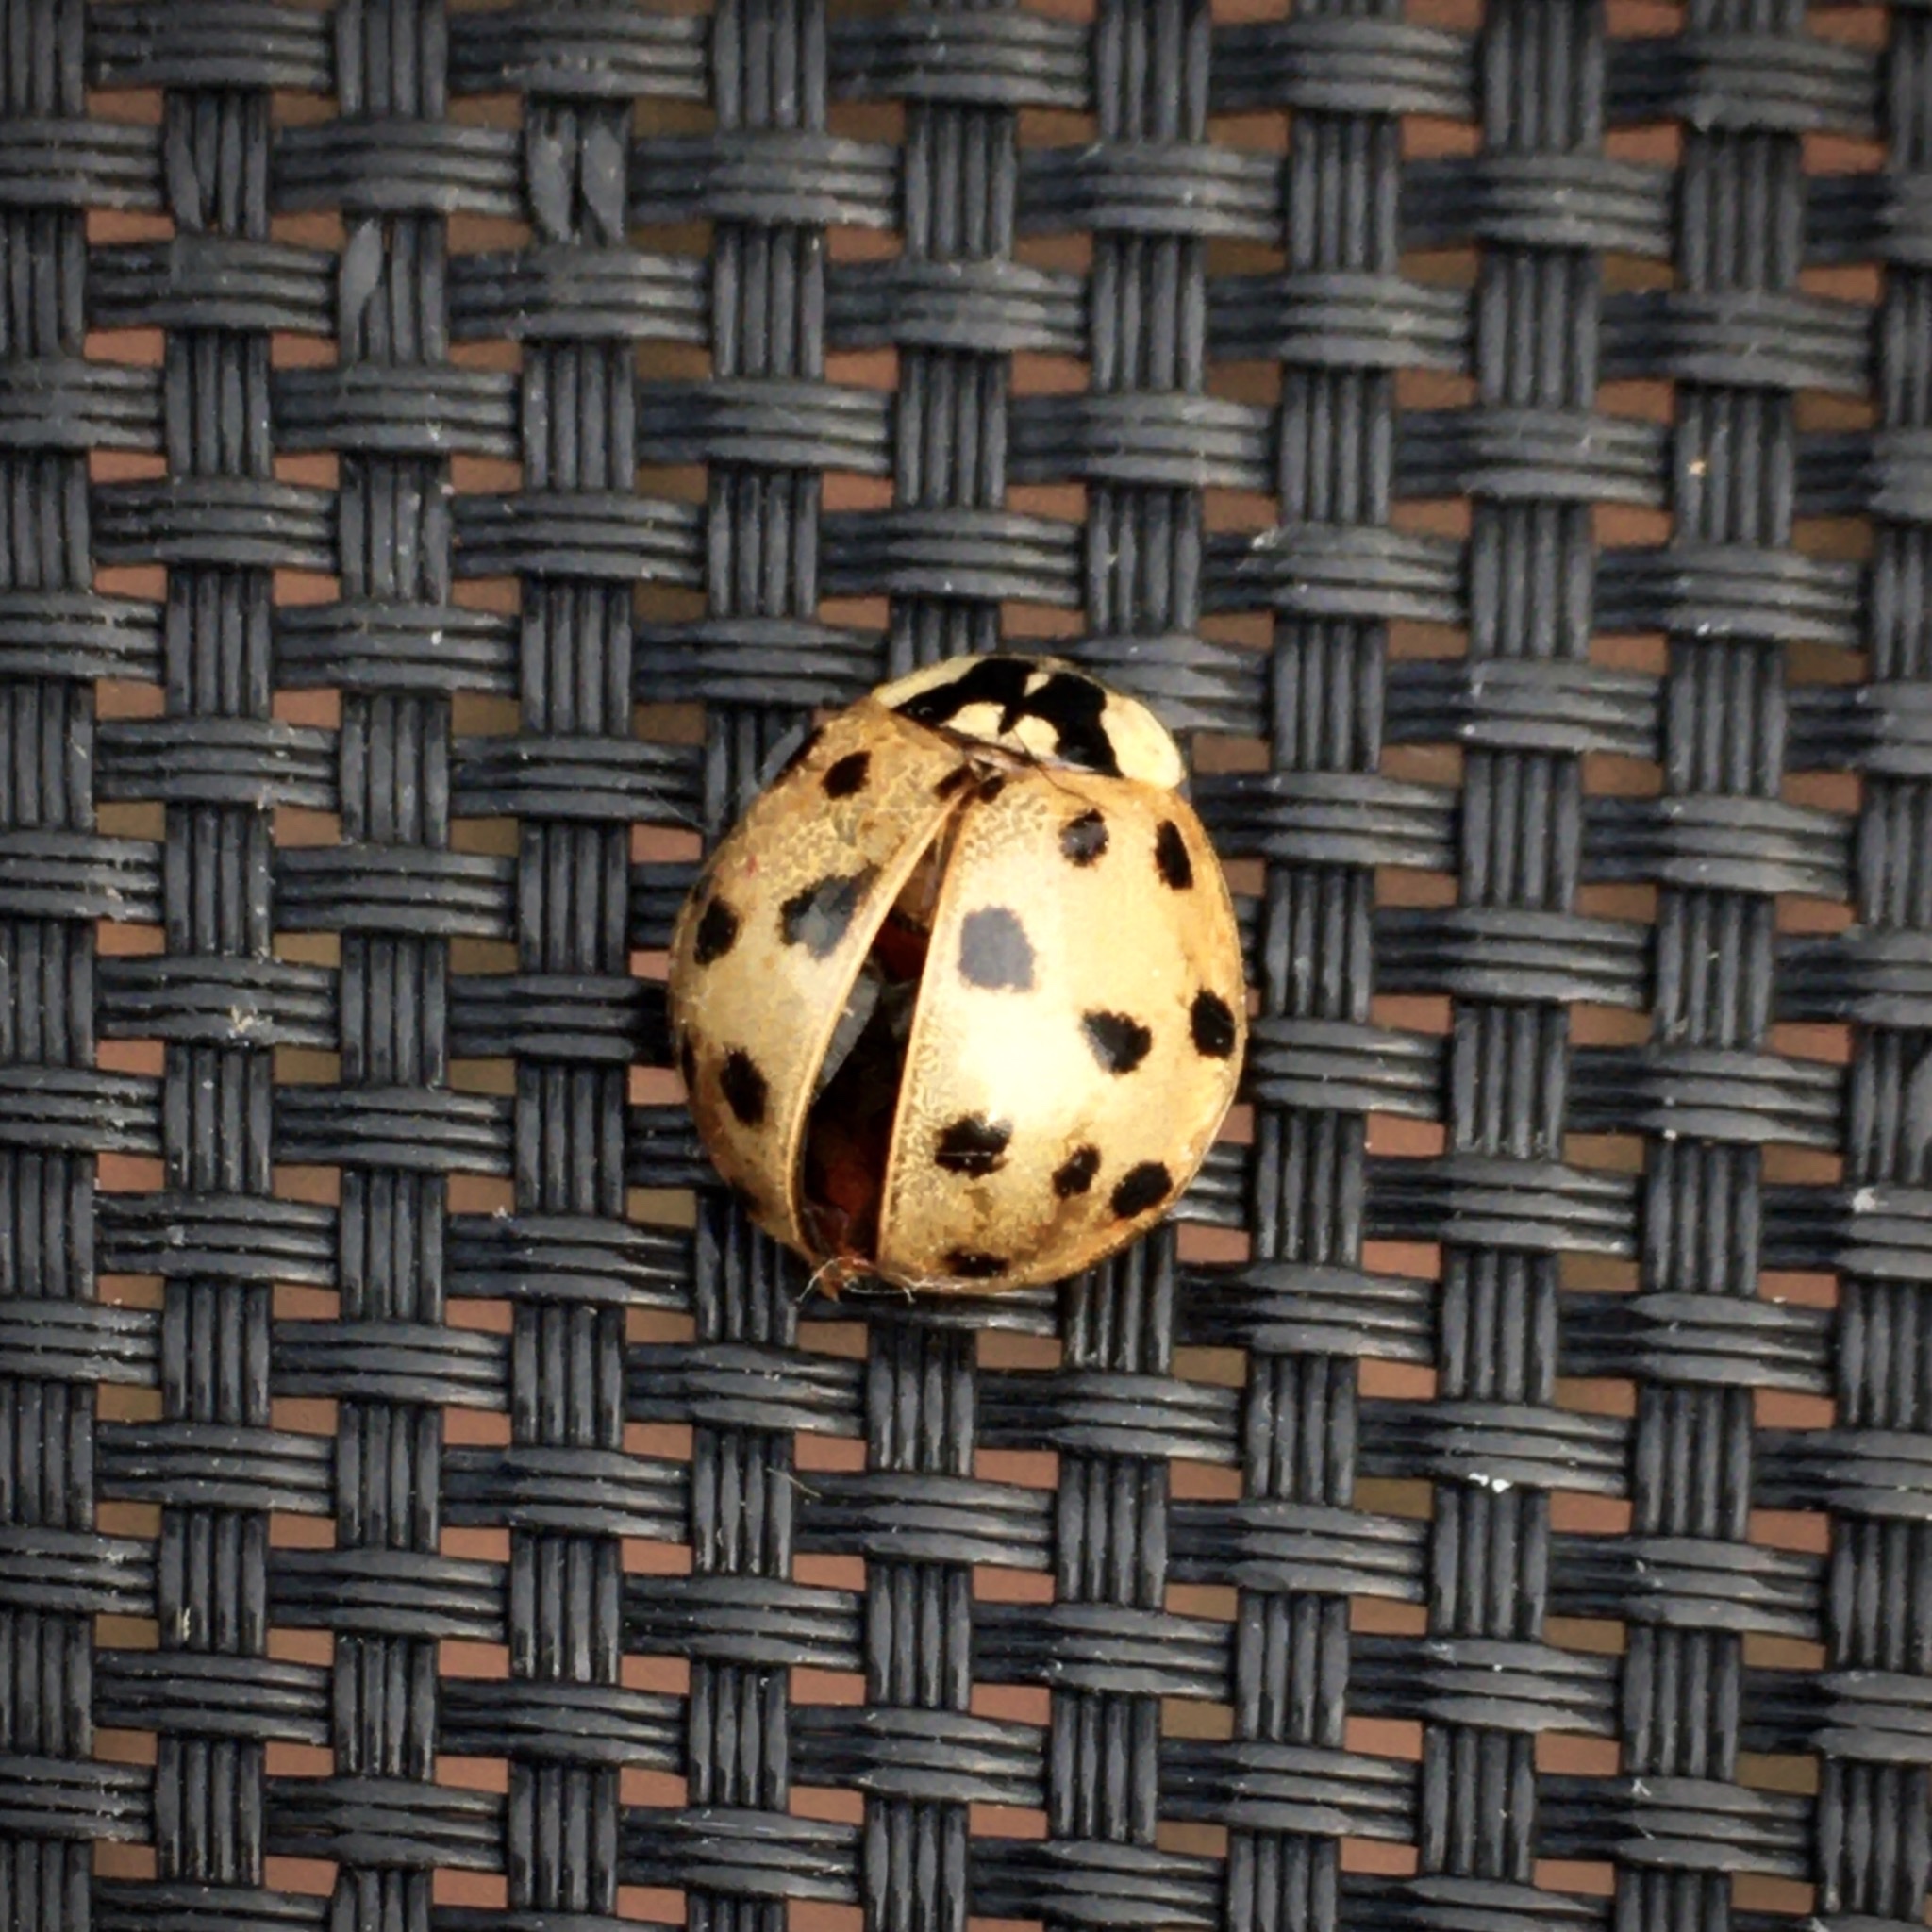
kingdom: Animalia
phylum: Arthropoda
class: Insecta
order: Coleoptera
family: Coccinellidae
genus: Harmonia
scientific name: Harmonia axyridis
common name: Harlequin ladybird
